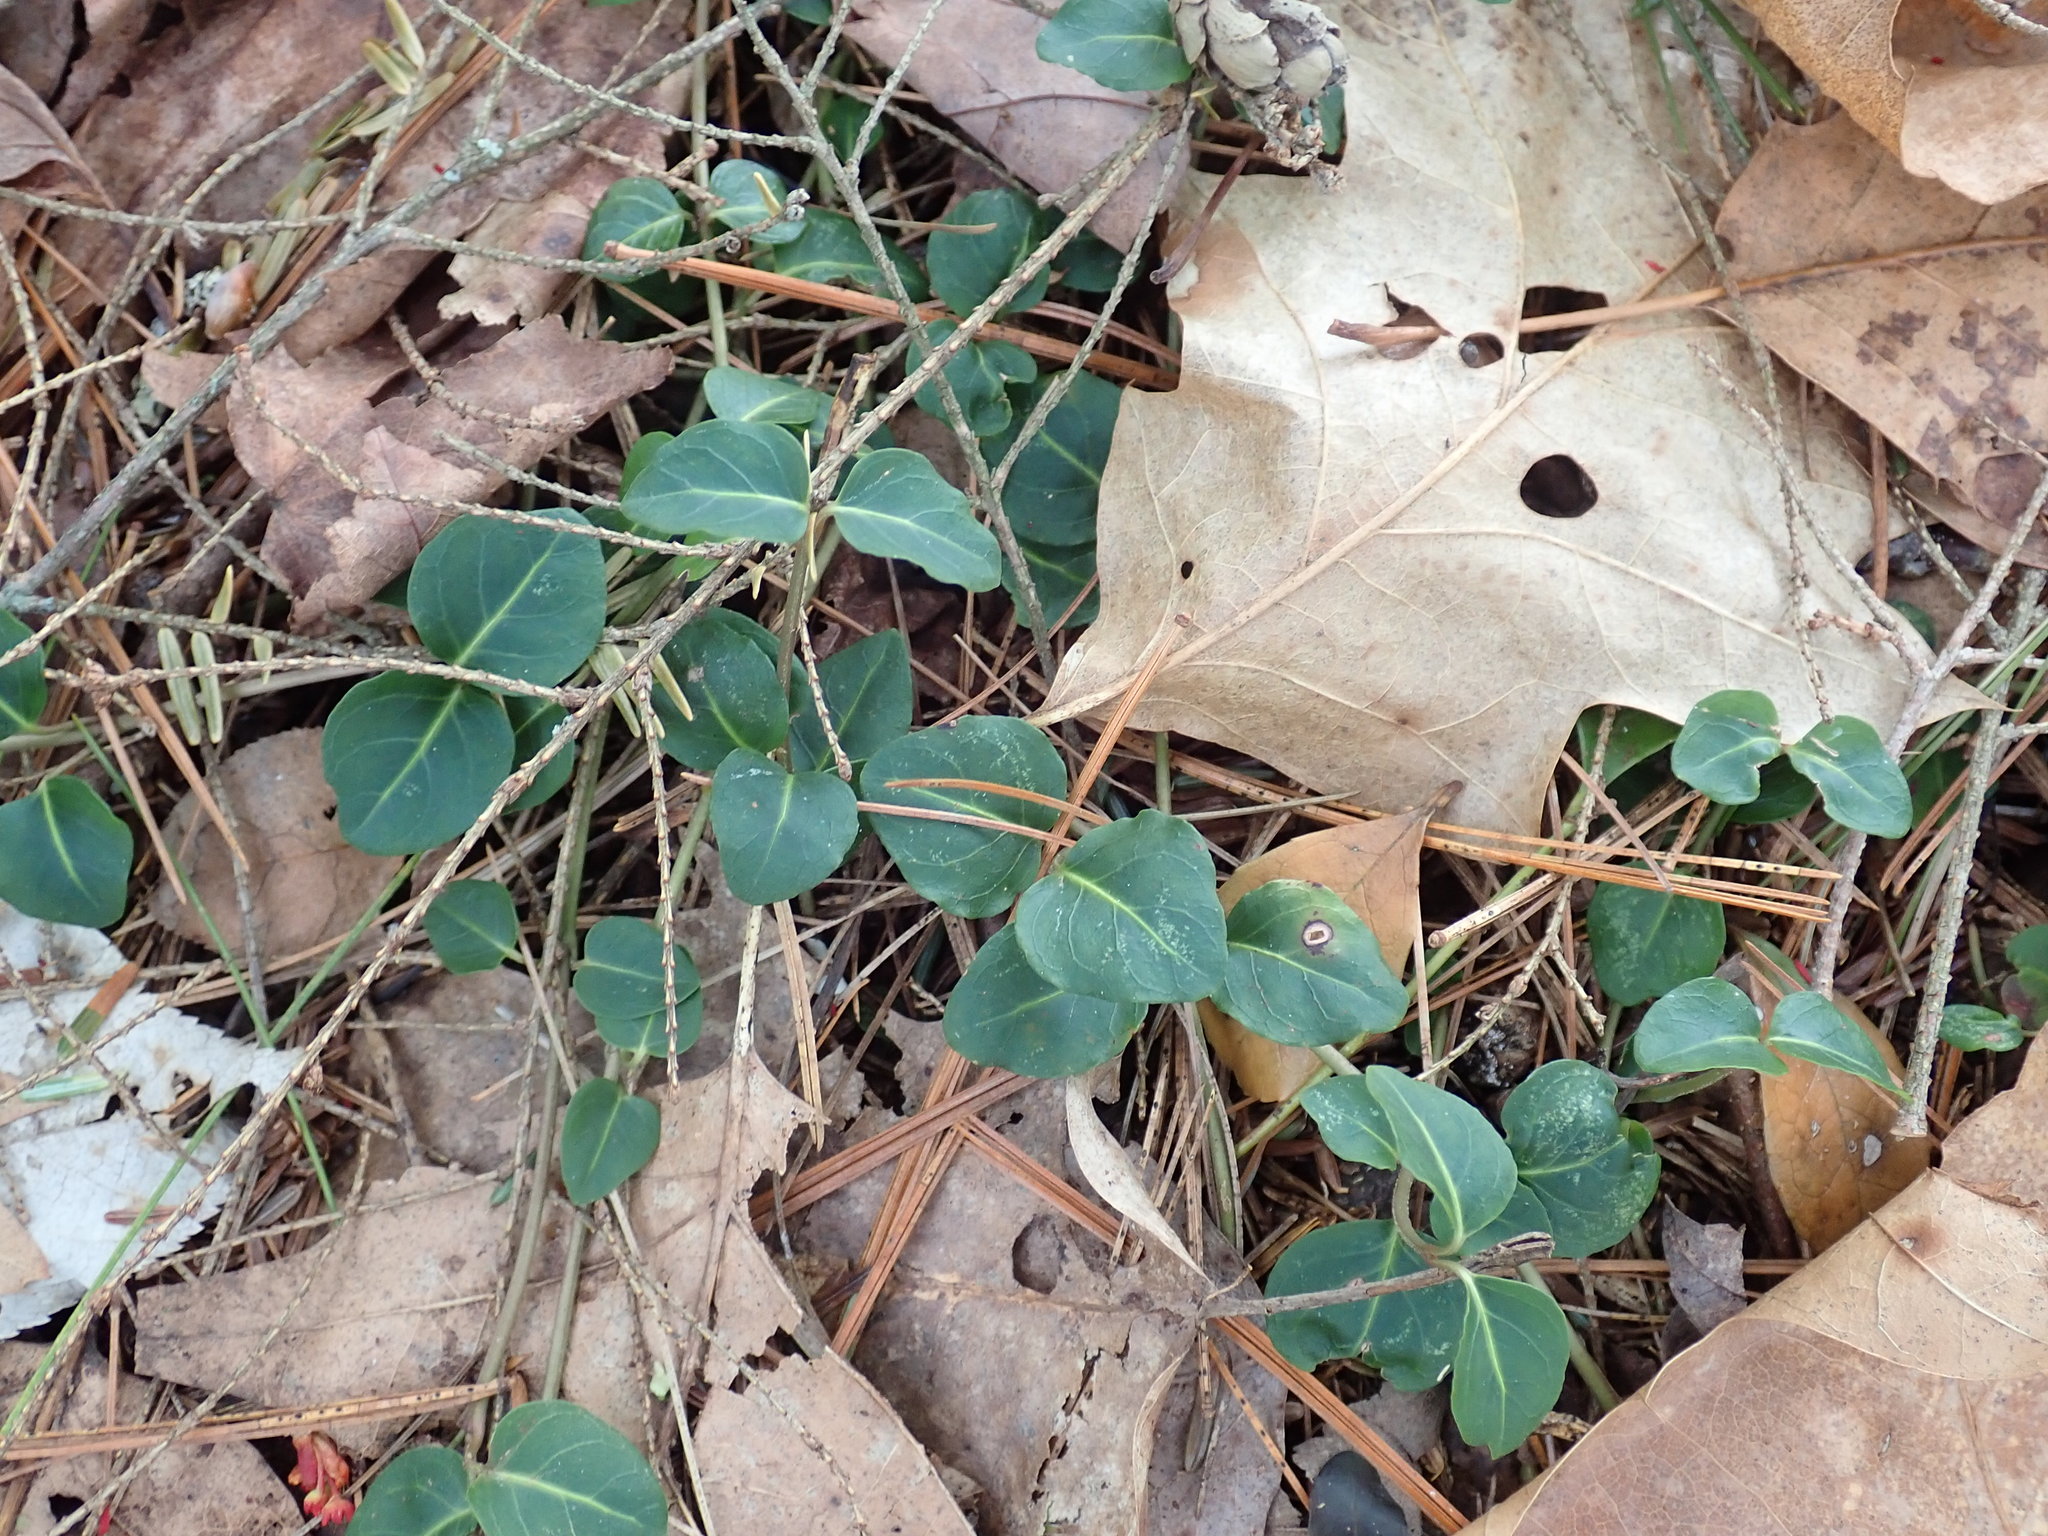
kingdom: Plantae
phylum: Tracheophyta
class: Magnoliopsida
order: Gentianales
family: Rubiaceae
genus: Mitchella
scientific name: Mitchella repens
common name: Partridge-berry
